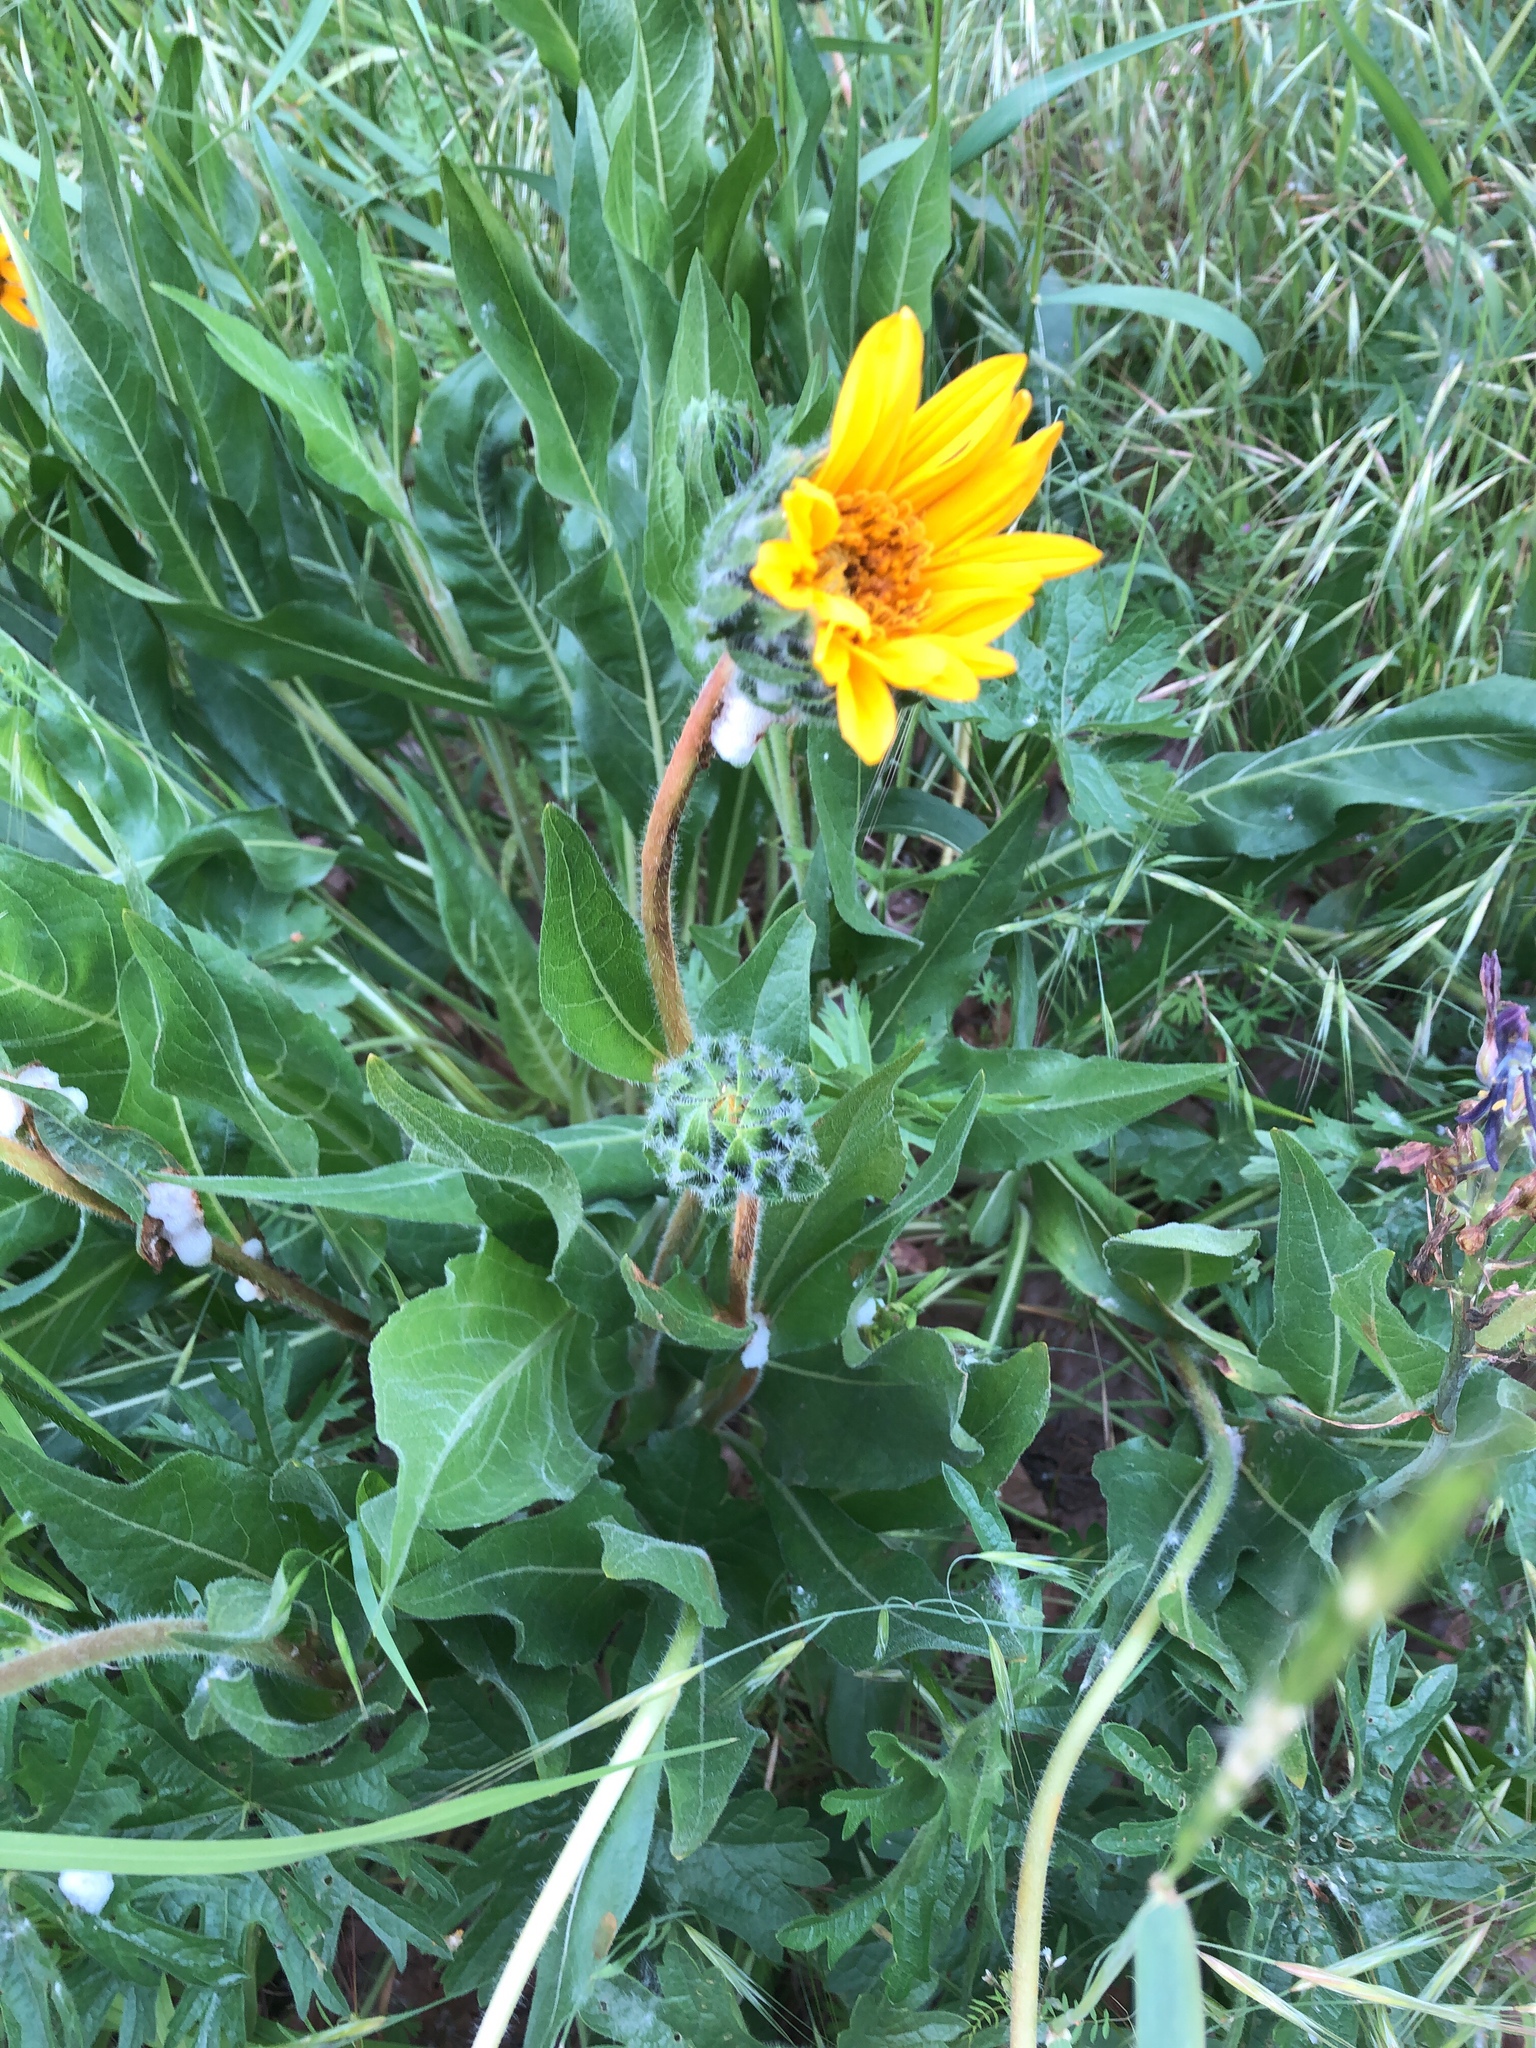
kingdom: Plantae
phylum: Tracheophyta
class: Magnoliopsida
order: Asterales
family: Asteraceae
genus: Wyethia
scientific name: Wyethia angustifolia
